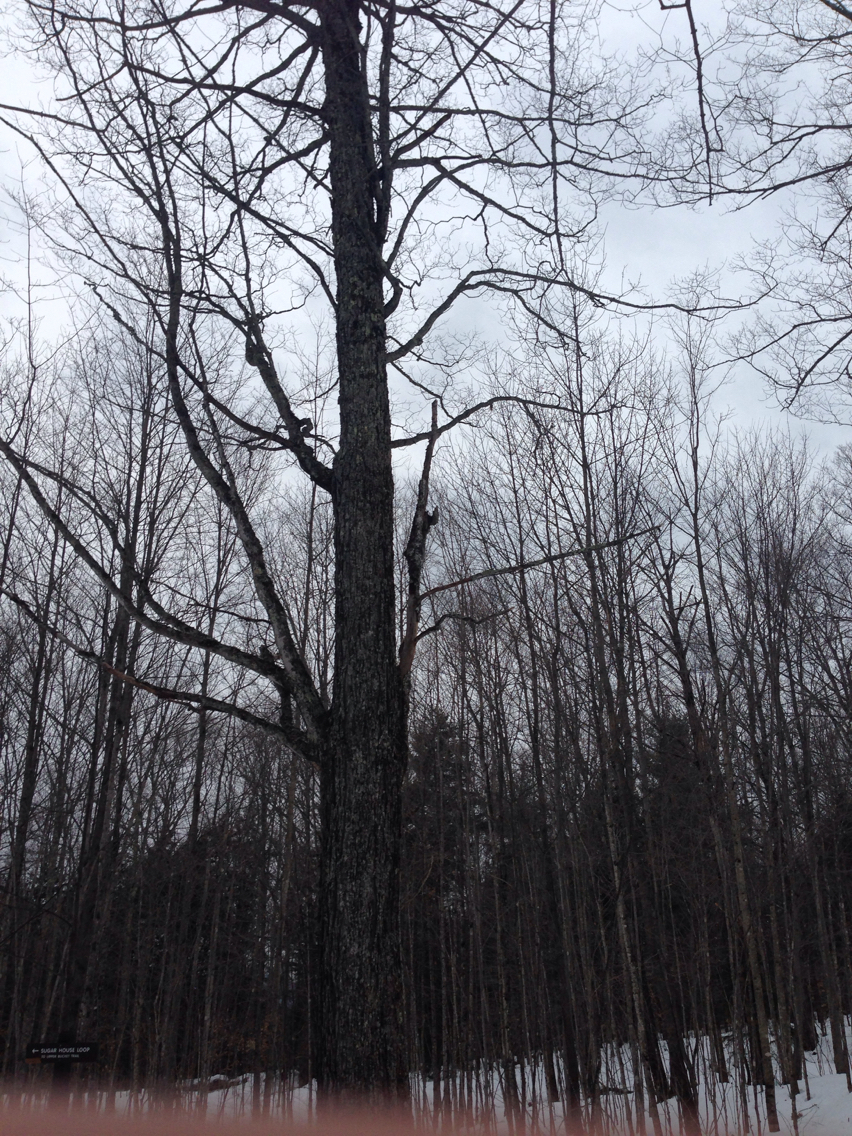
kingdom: Plantae
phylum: Tracheophyta
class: Magnoliopsida
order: Sapindales
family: Sapindaceae
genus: Acer
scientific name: Acer saccharum
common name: Sugar maple
